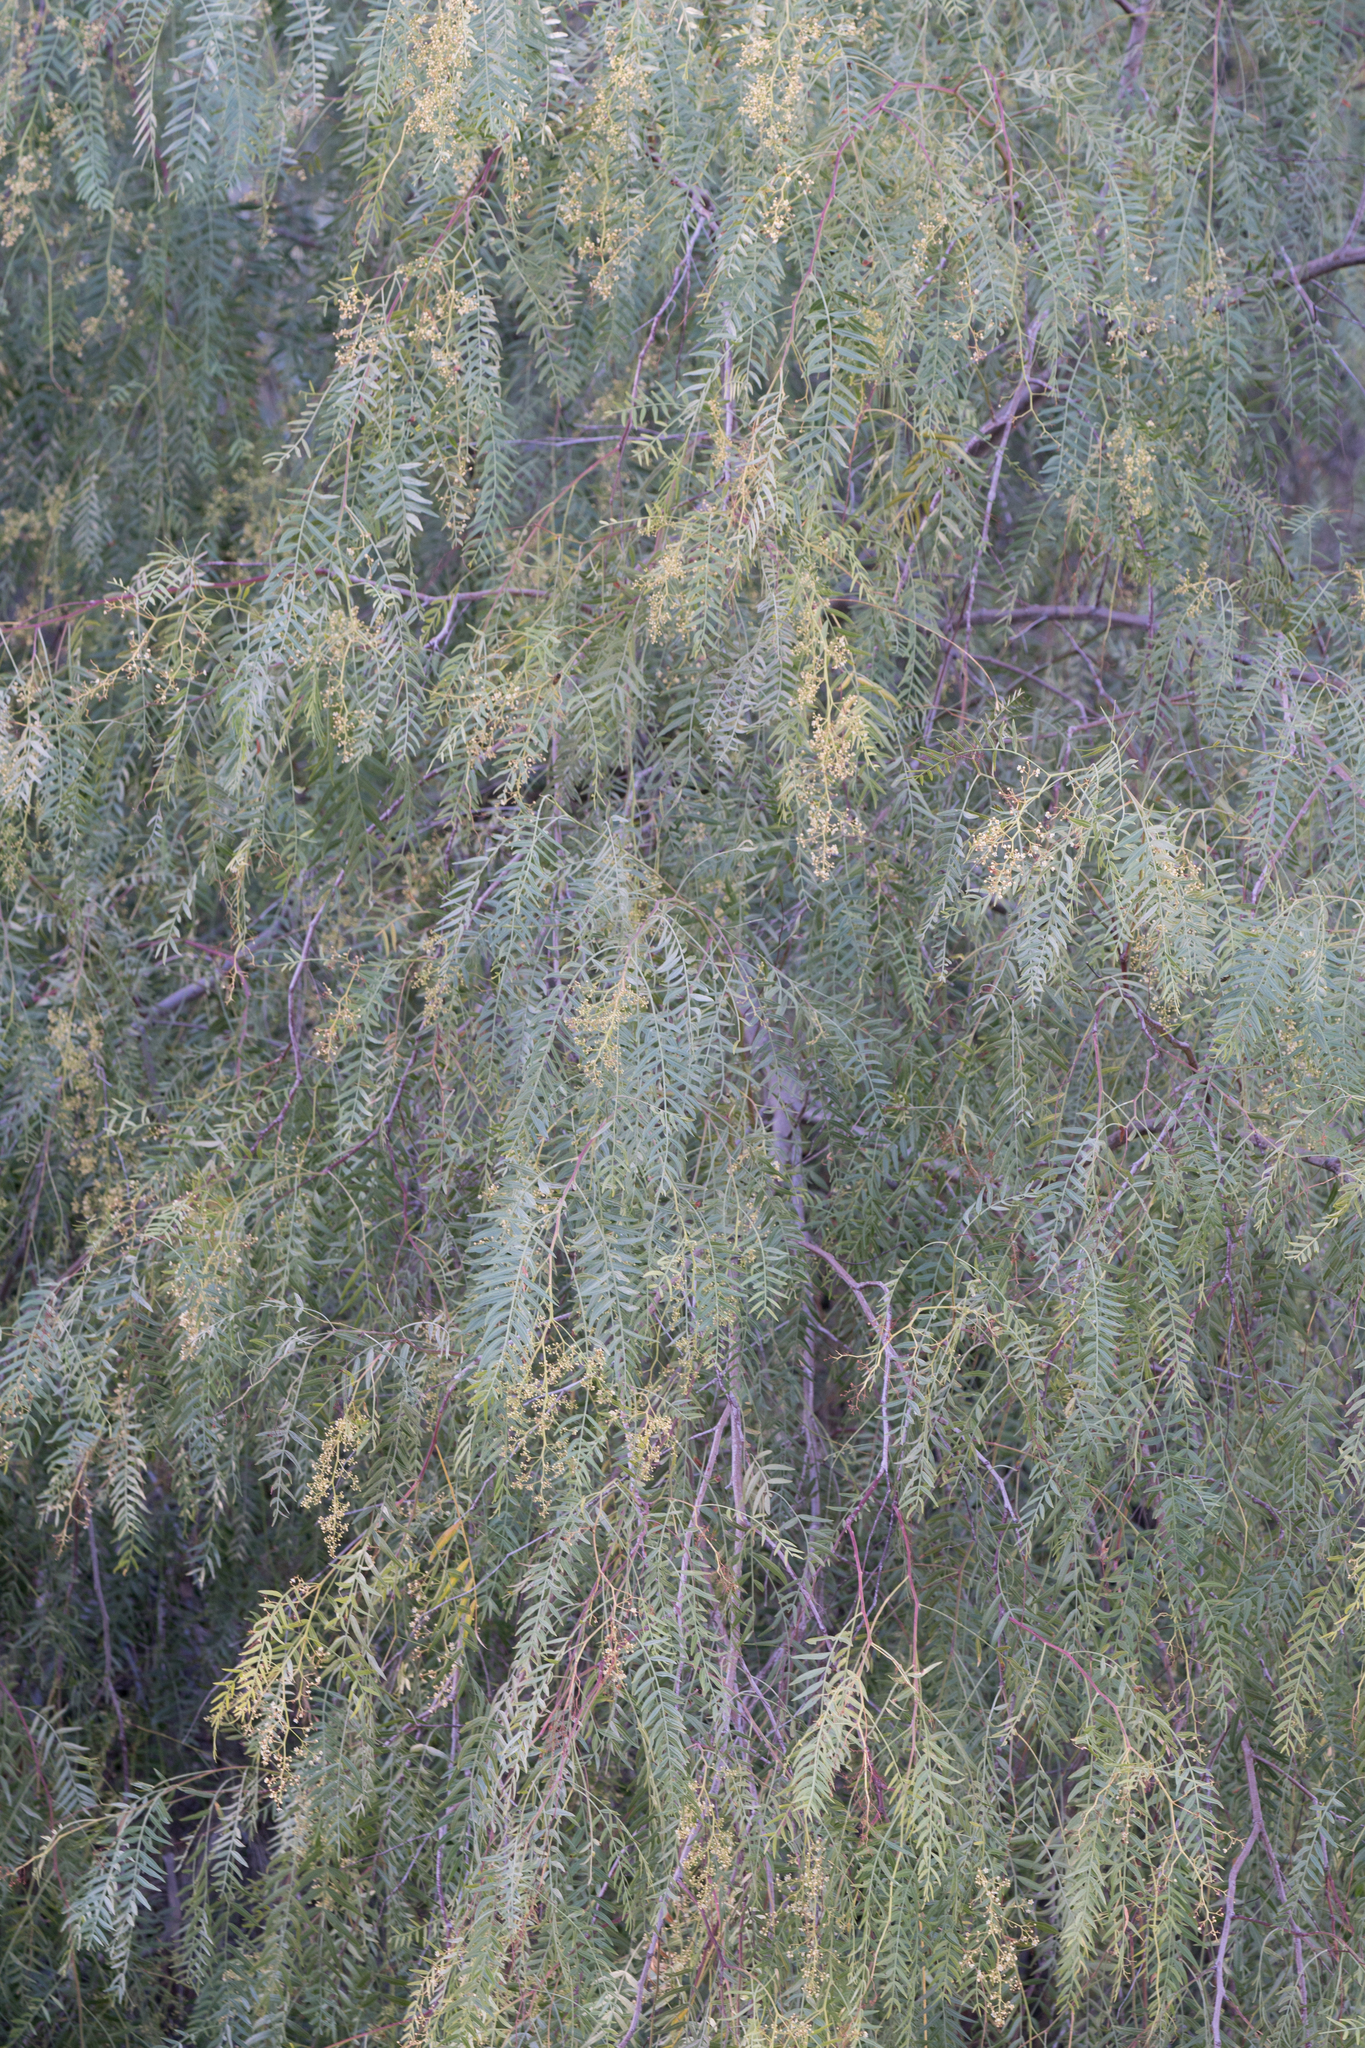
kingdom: Plantae
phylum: Tracheophyta
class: Magnoliopsida
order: Sapindales
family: Anacardiaceae
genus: Schinus
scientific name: Schinus molle
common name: Peruvian peppertree
